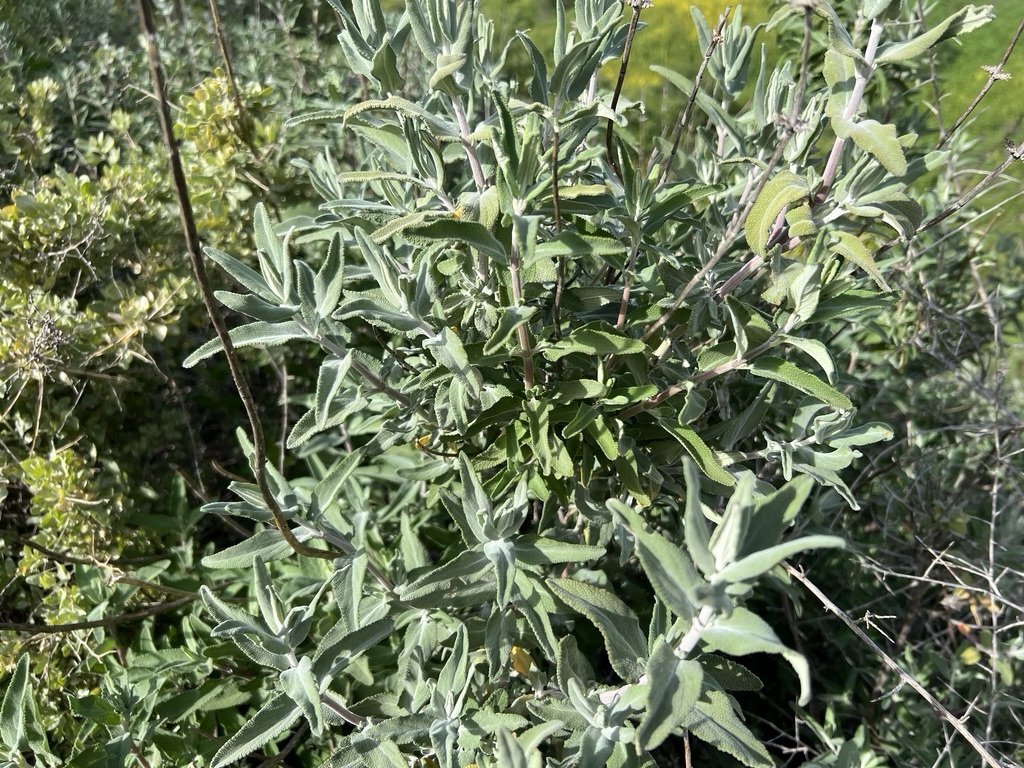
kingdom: Plantae
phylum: Tracheophyta
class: Magnoliopsida
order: Lamiales
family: Lamiaceae
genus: Salvia
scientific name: Salvia leucophylla
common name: Purple sage
